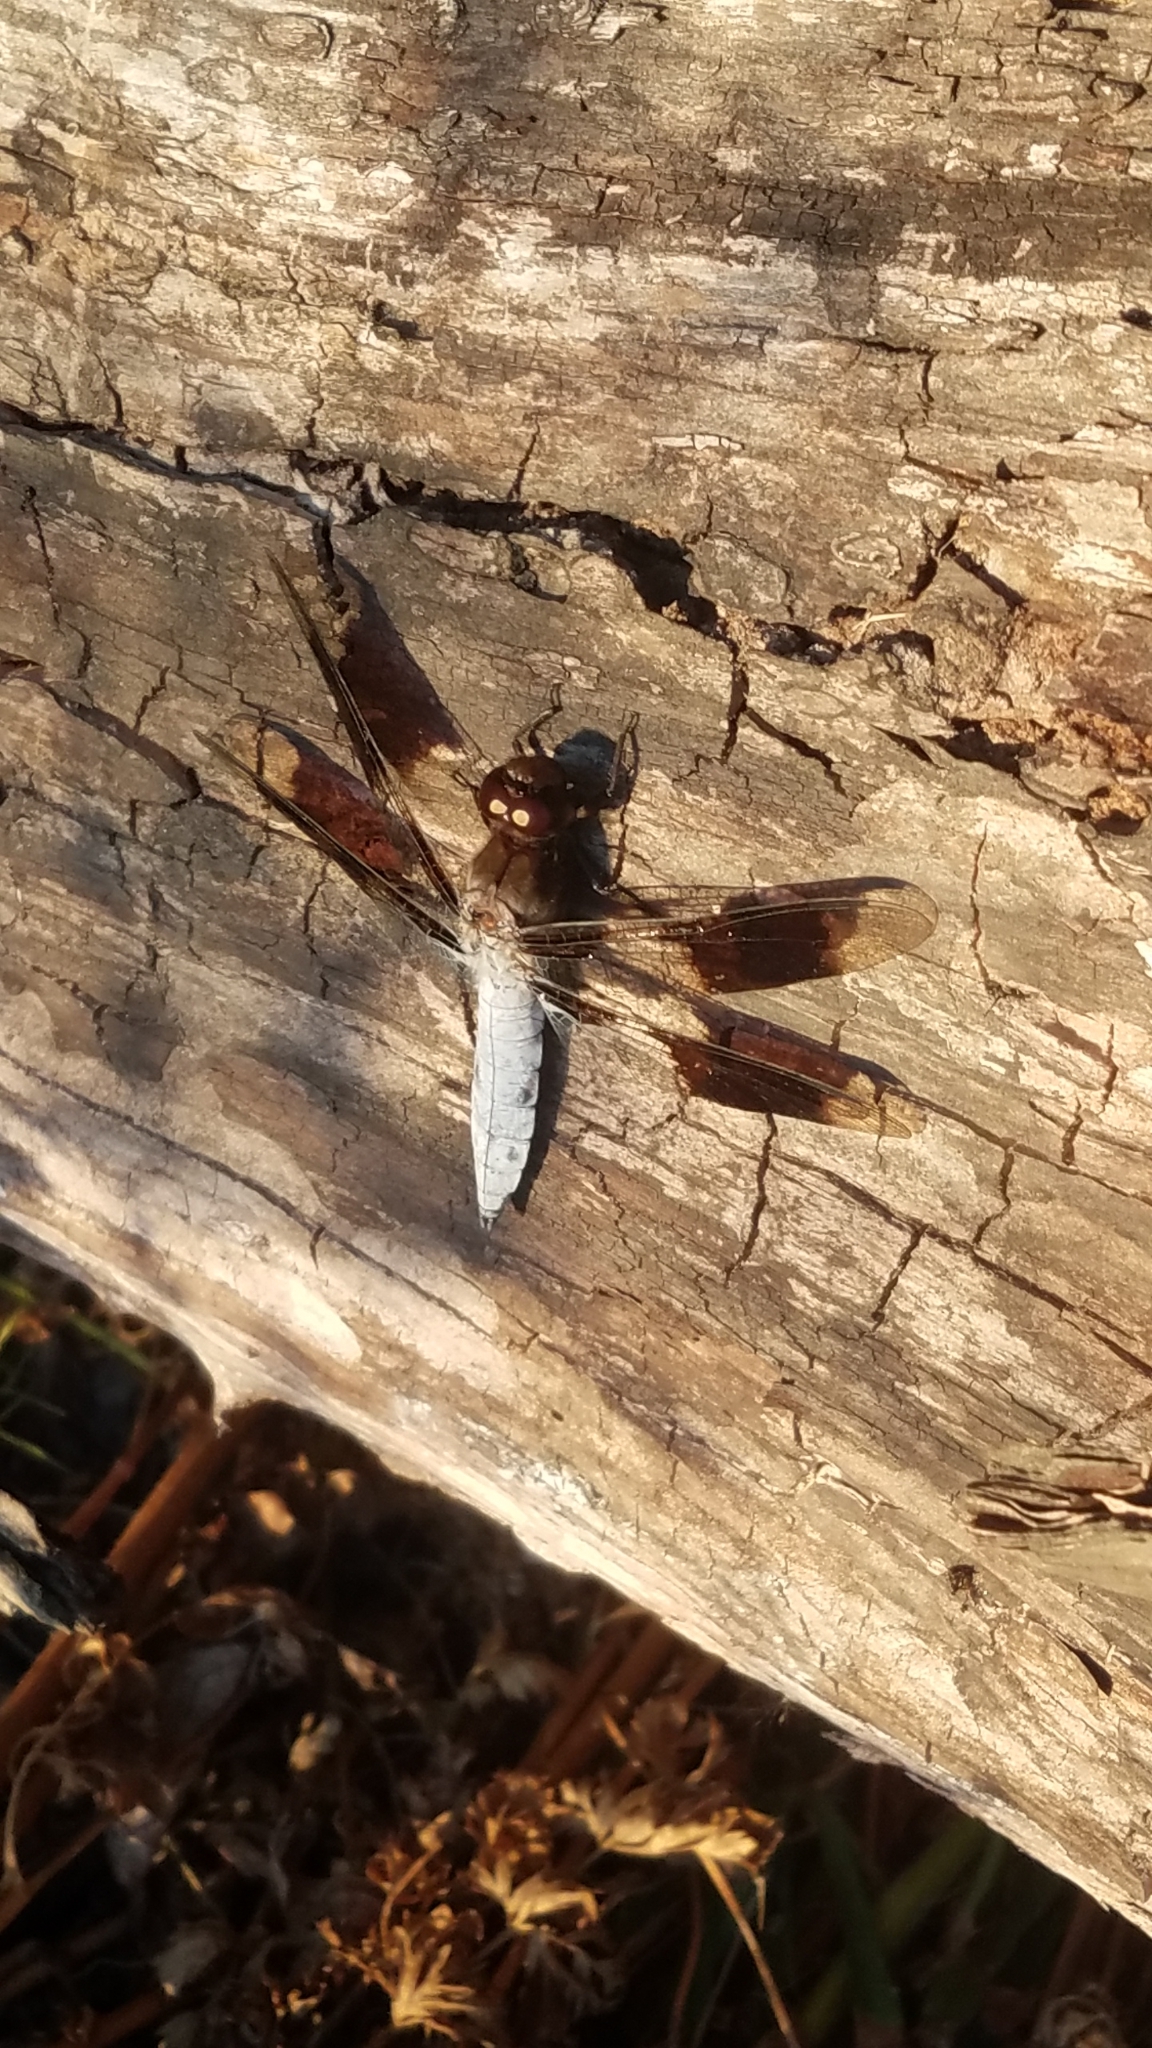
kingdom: Animalia
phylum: Arthropoda
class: Insecta
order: Odonata
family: Libellulidae
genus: Plathemis
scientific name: Plathemis lydia
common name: Common whitetail
